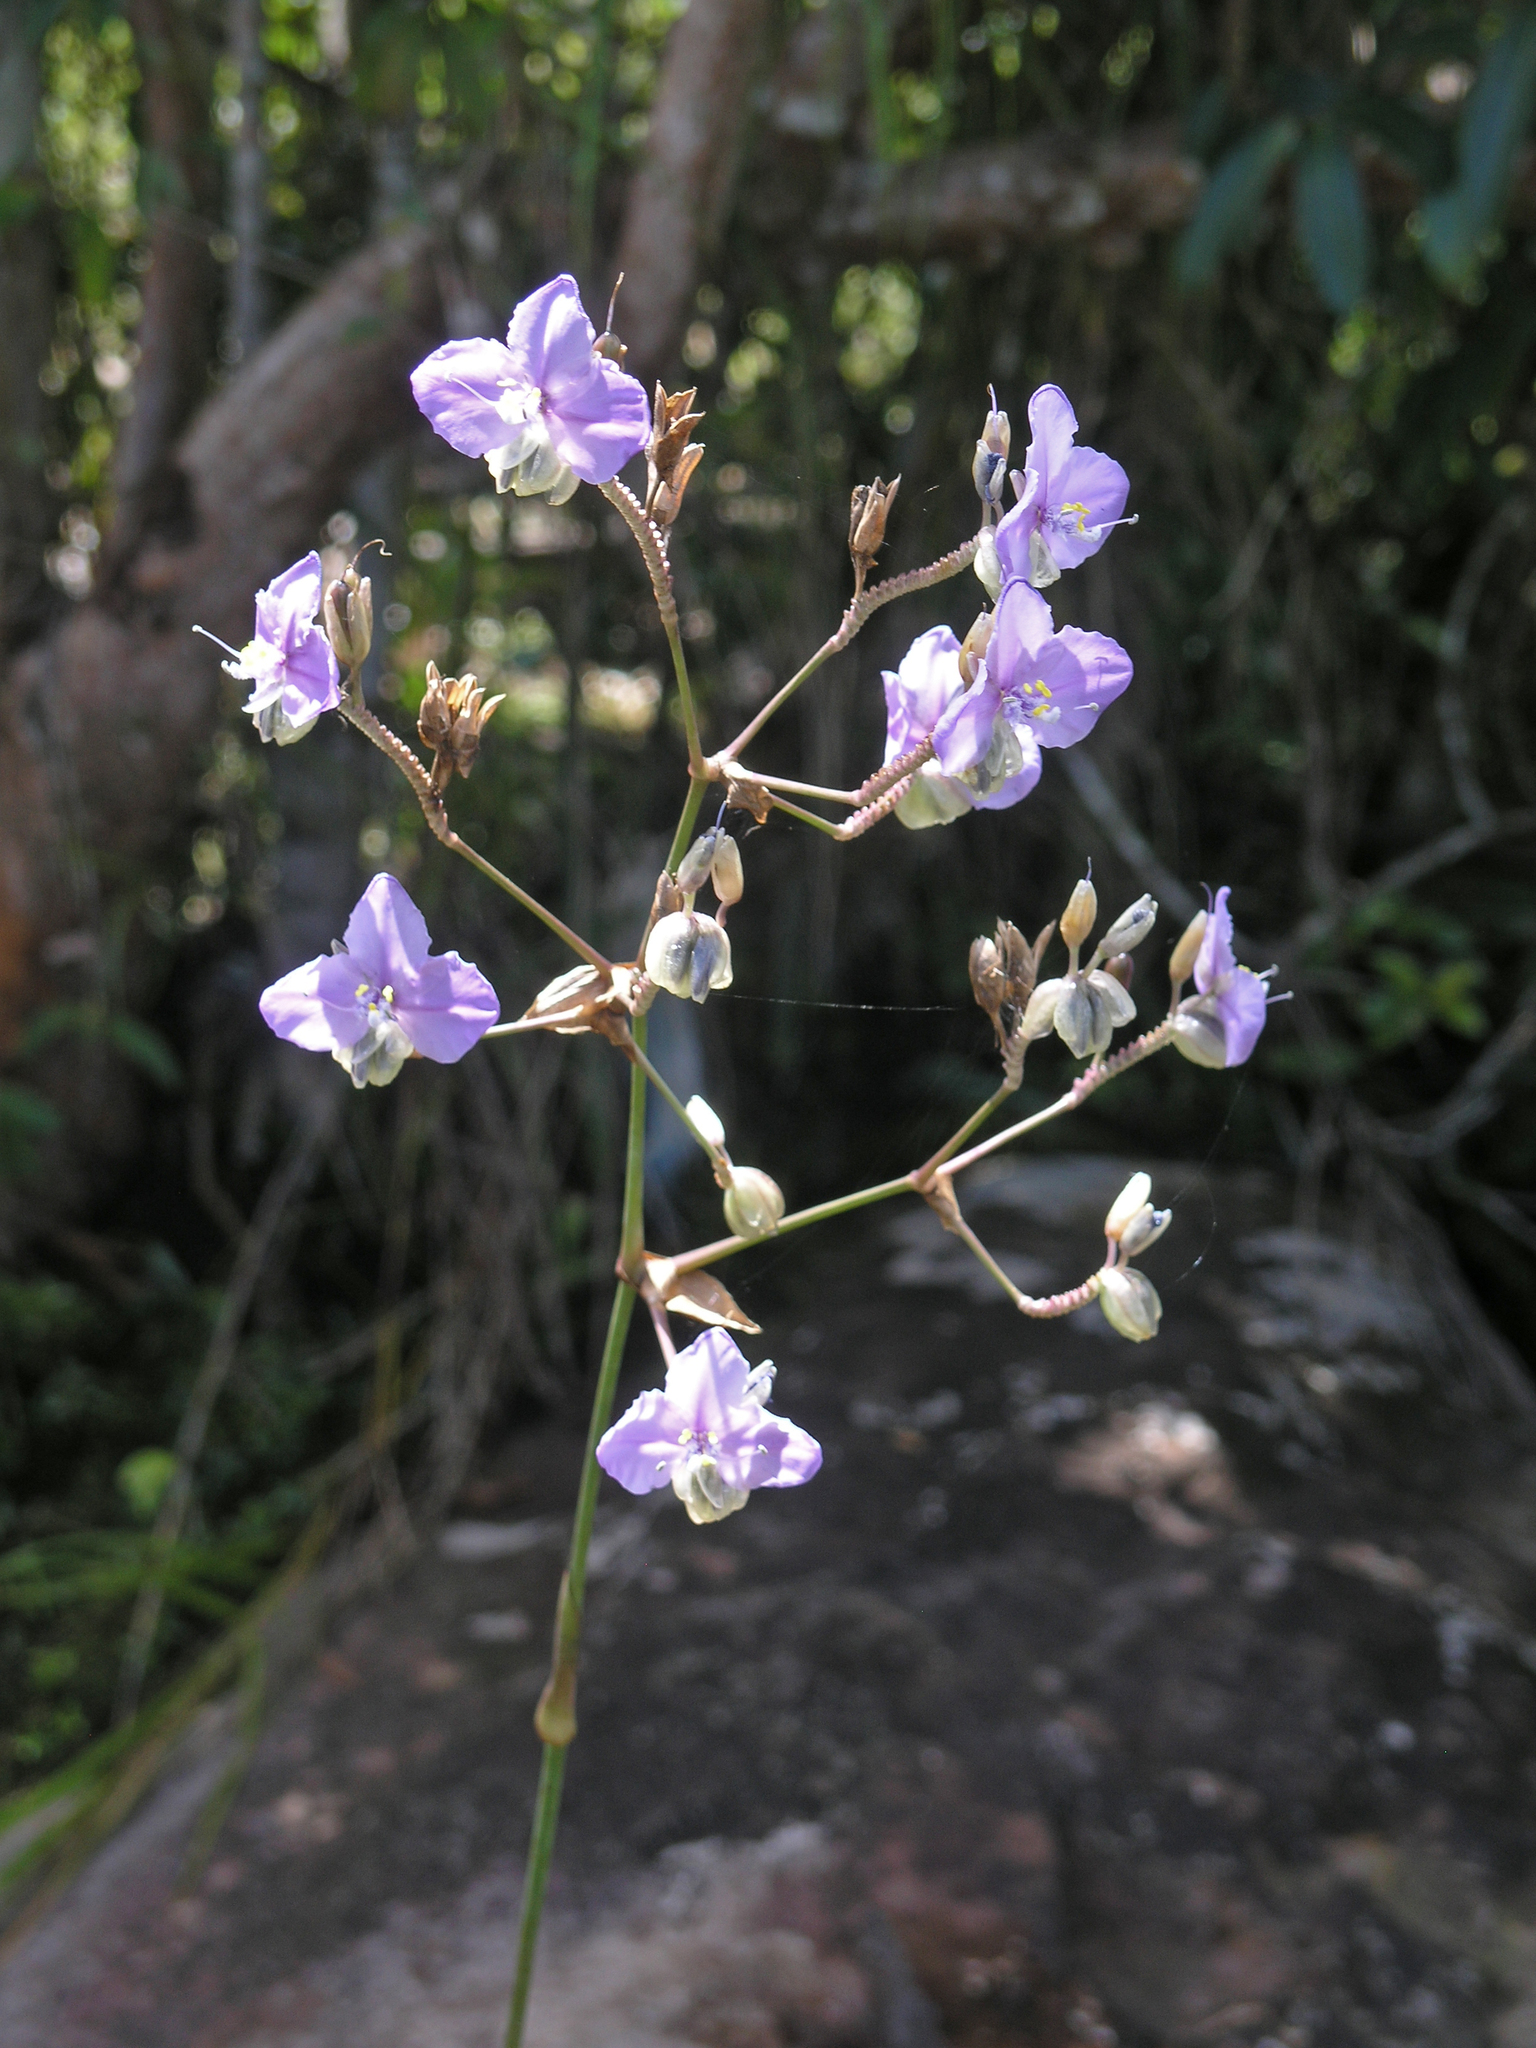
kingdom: Plantae
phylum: Tracheophyta
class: Liliopsida
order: Commelinales
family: Commelinaceae
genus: Murdannia
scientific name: Murdannia macrocarpa
